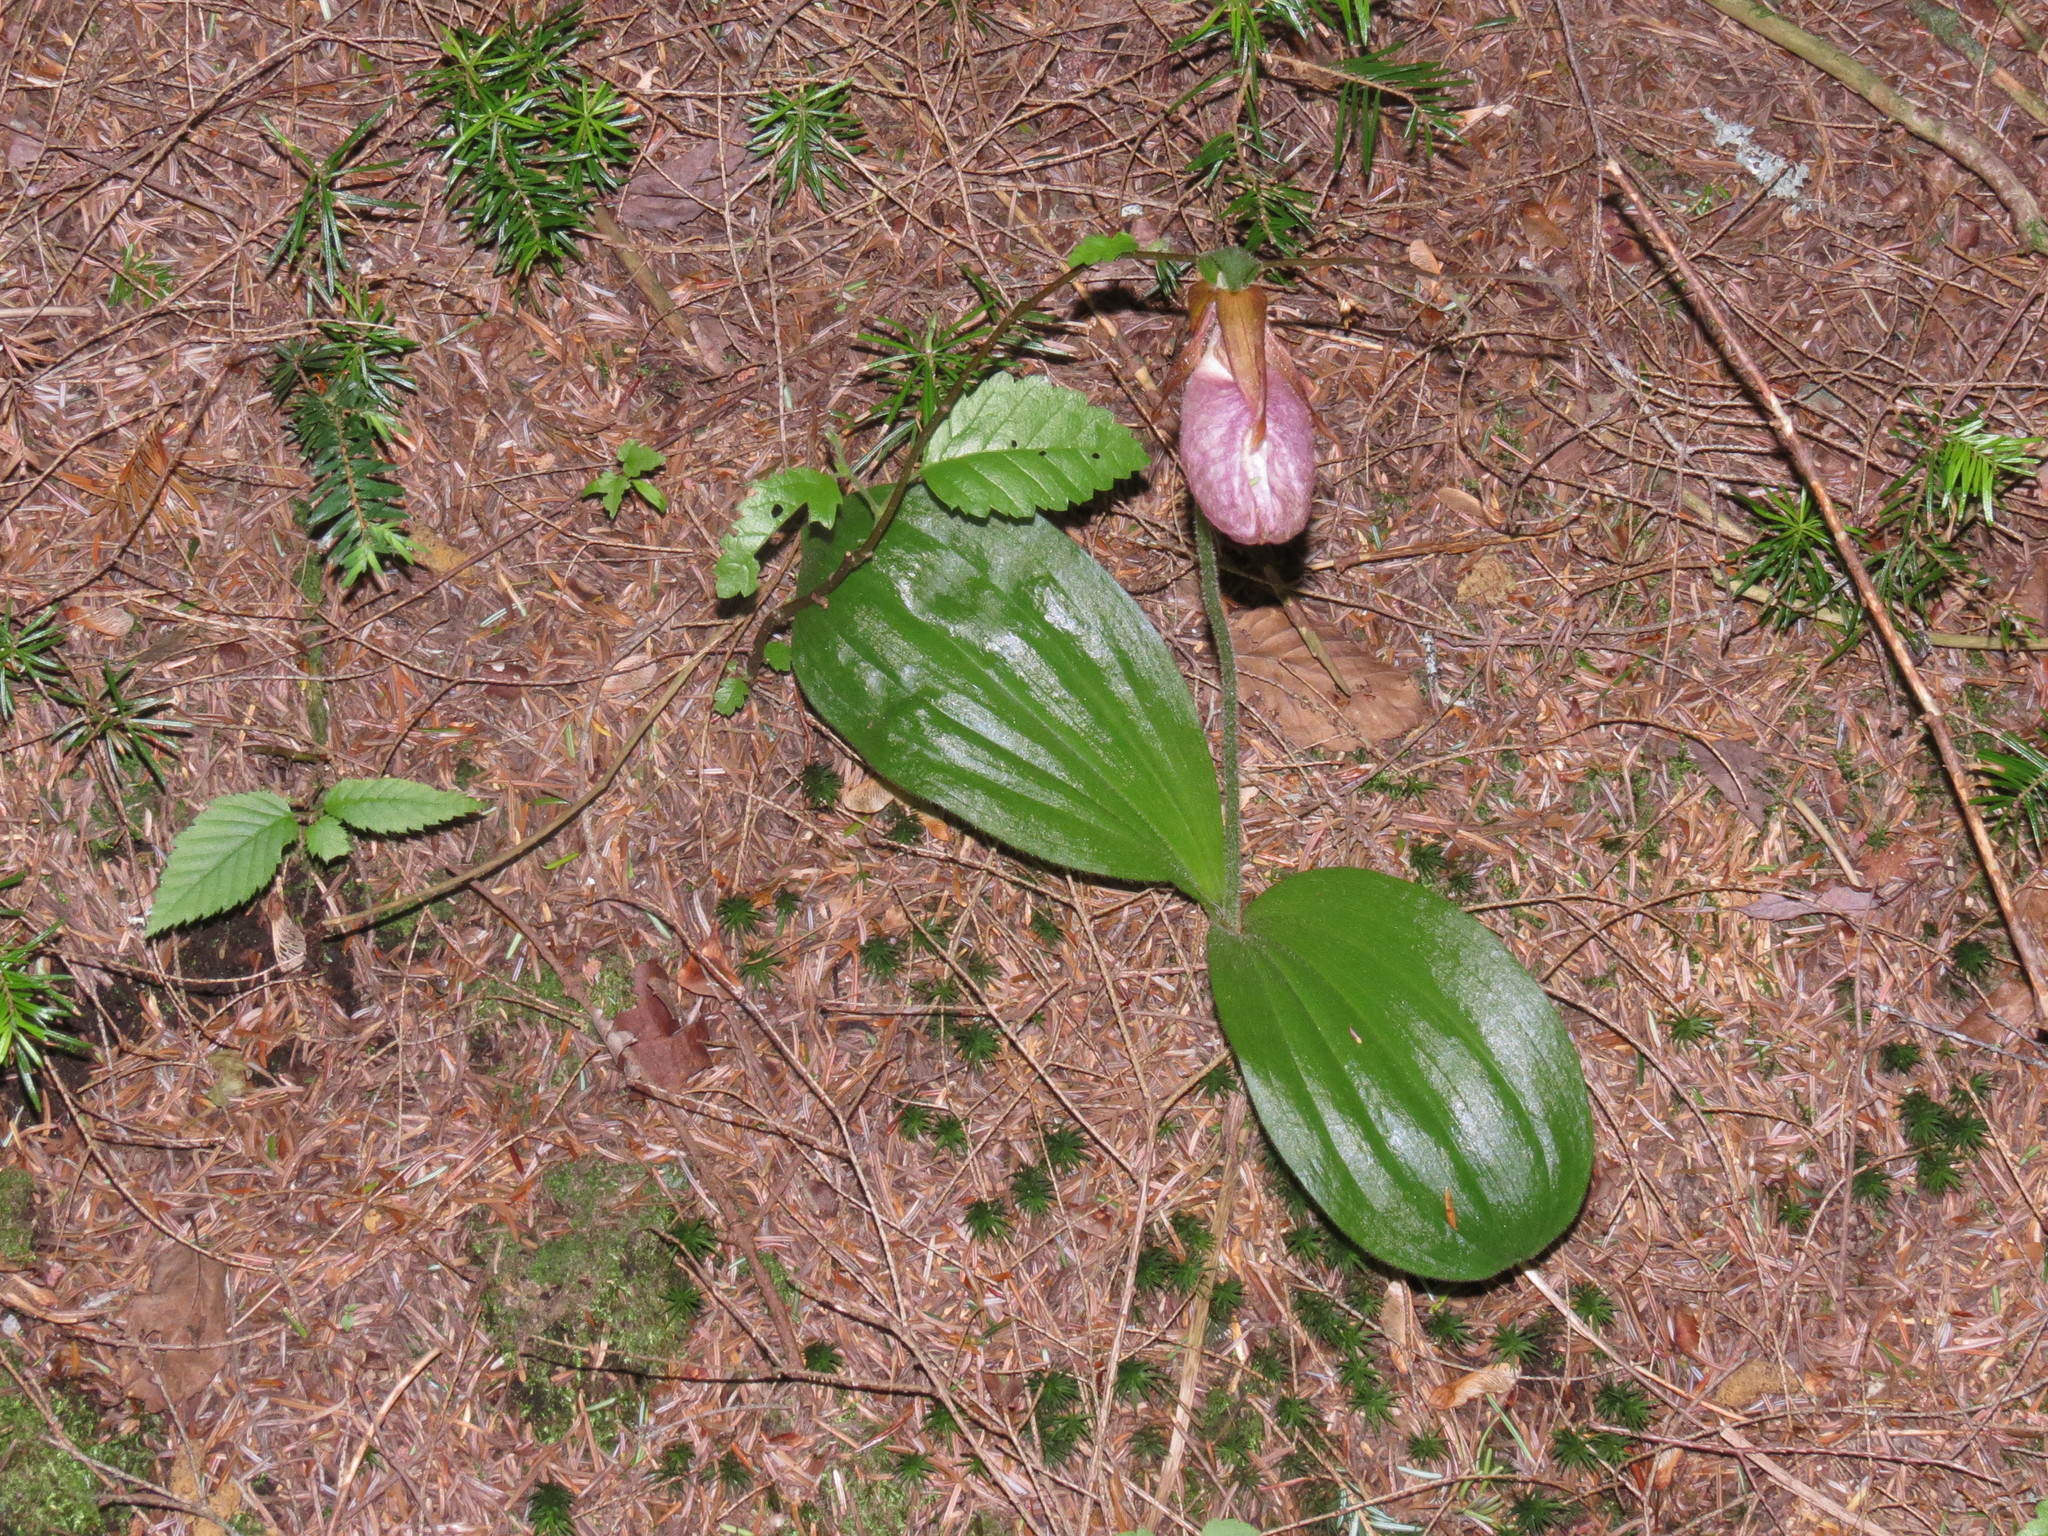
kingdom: Plantae
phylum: Tracheophyta
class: Liliopsida
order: Asparagales
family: Orchidaceae
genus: Cypripedium
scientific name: Cypripedium acaule
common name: Pink lady's-slipper
